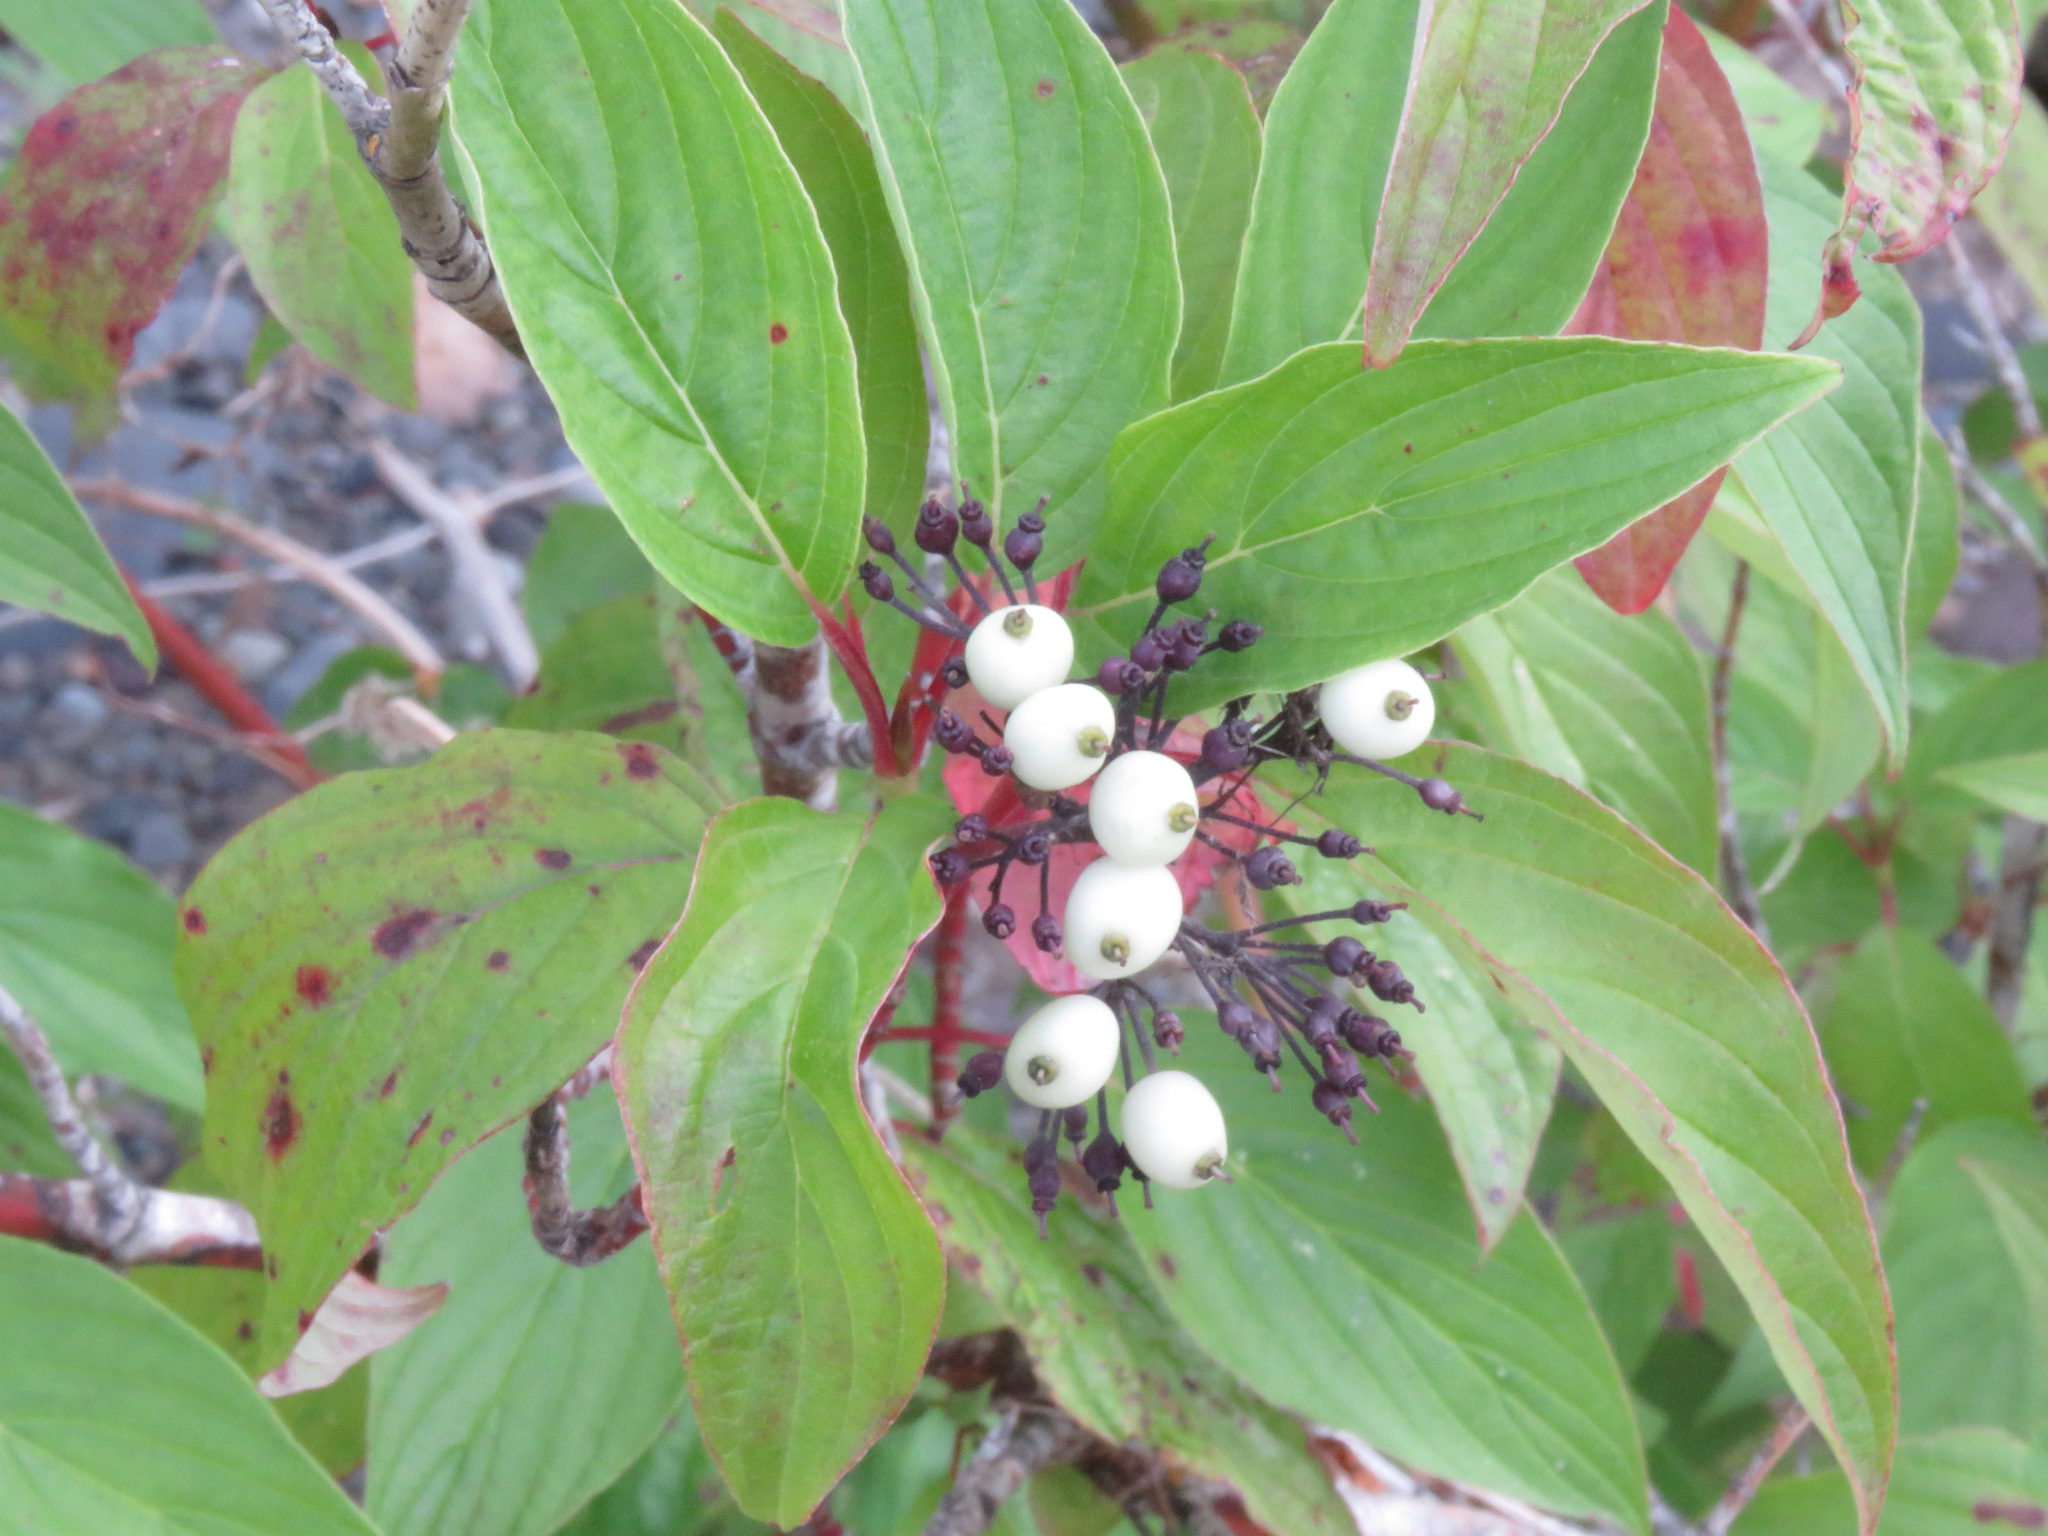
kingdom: Plantae
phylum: Tracheophyta
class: Magnoliopsida
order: Cornales
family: Cornaceae
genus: Cornus
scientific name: Cornus sericea
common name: Red-osier dogwood
